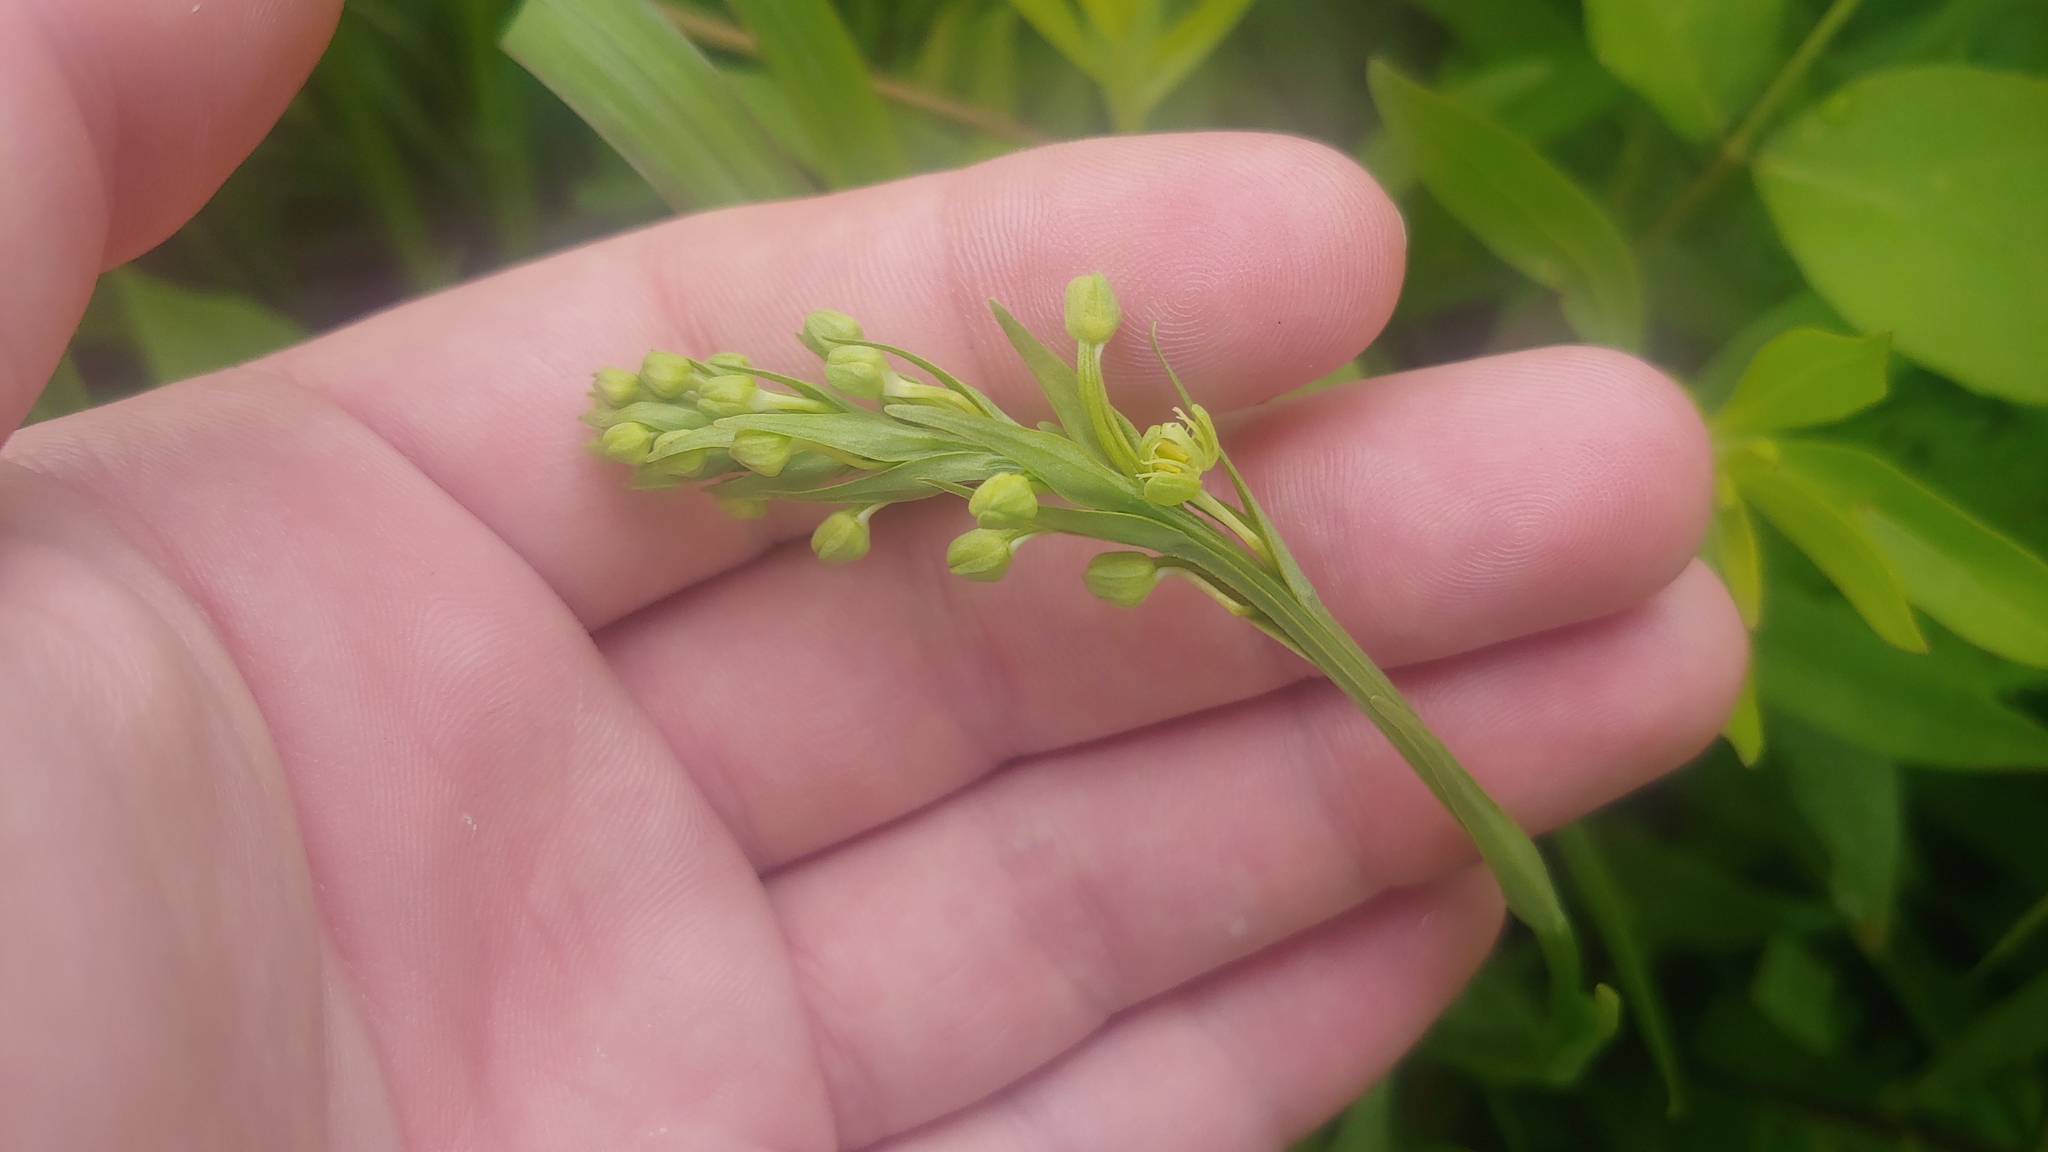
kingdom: Plantae
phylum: Tracheophyta
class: Liliopsida
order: Asparagales
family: Orchidaceae
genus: Platanthera
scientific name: Platanthera lacera
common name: Green fringed orchid
